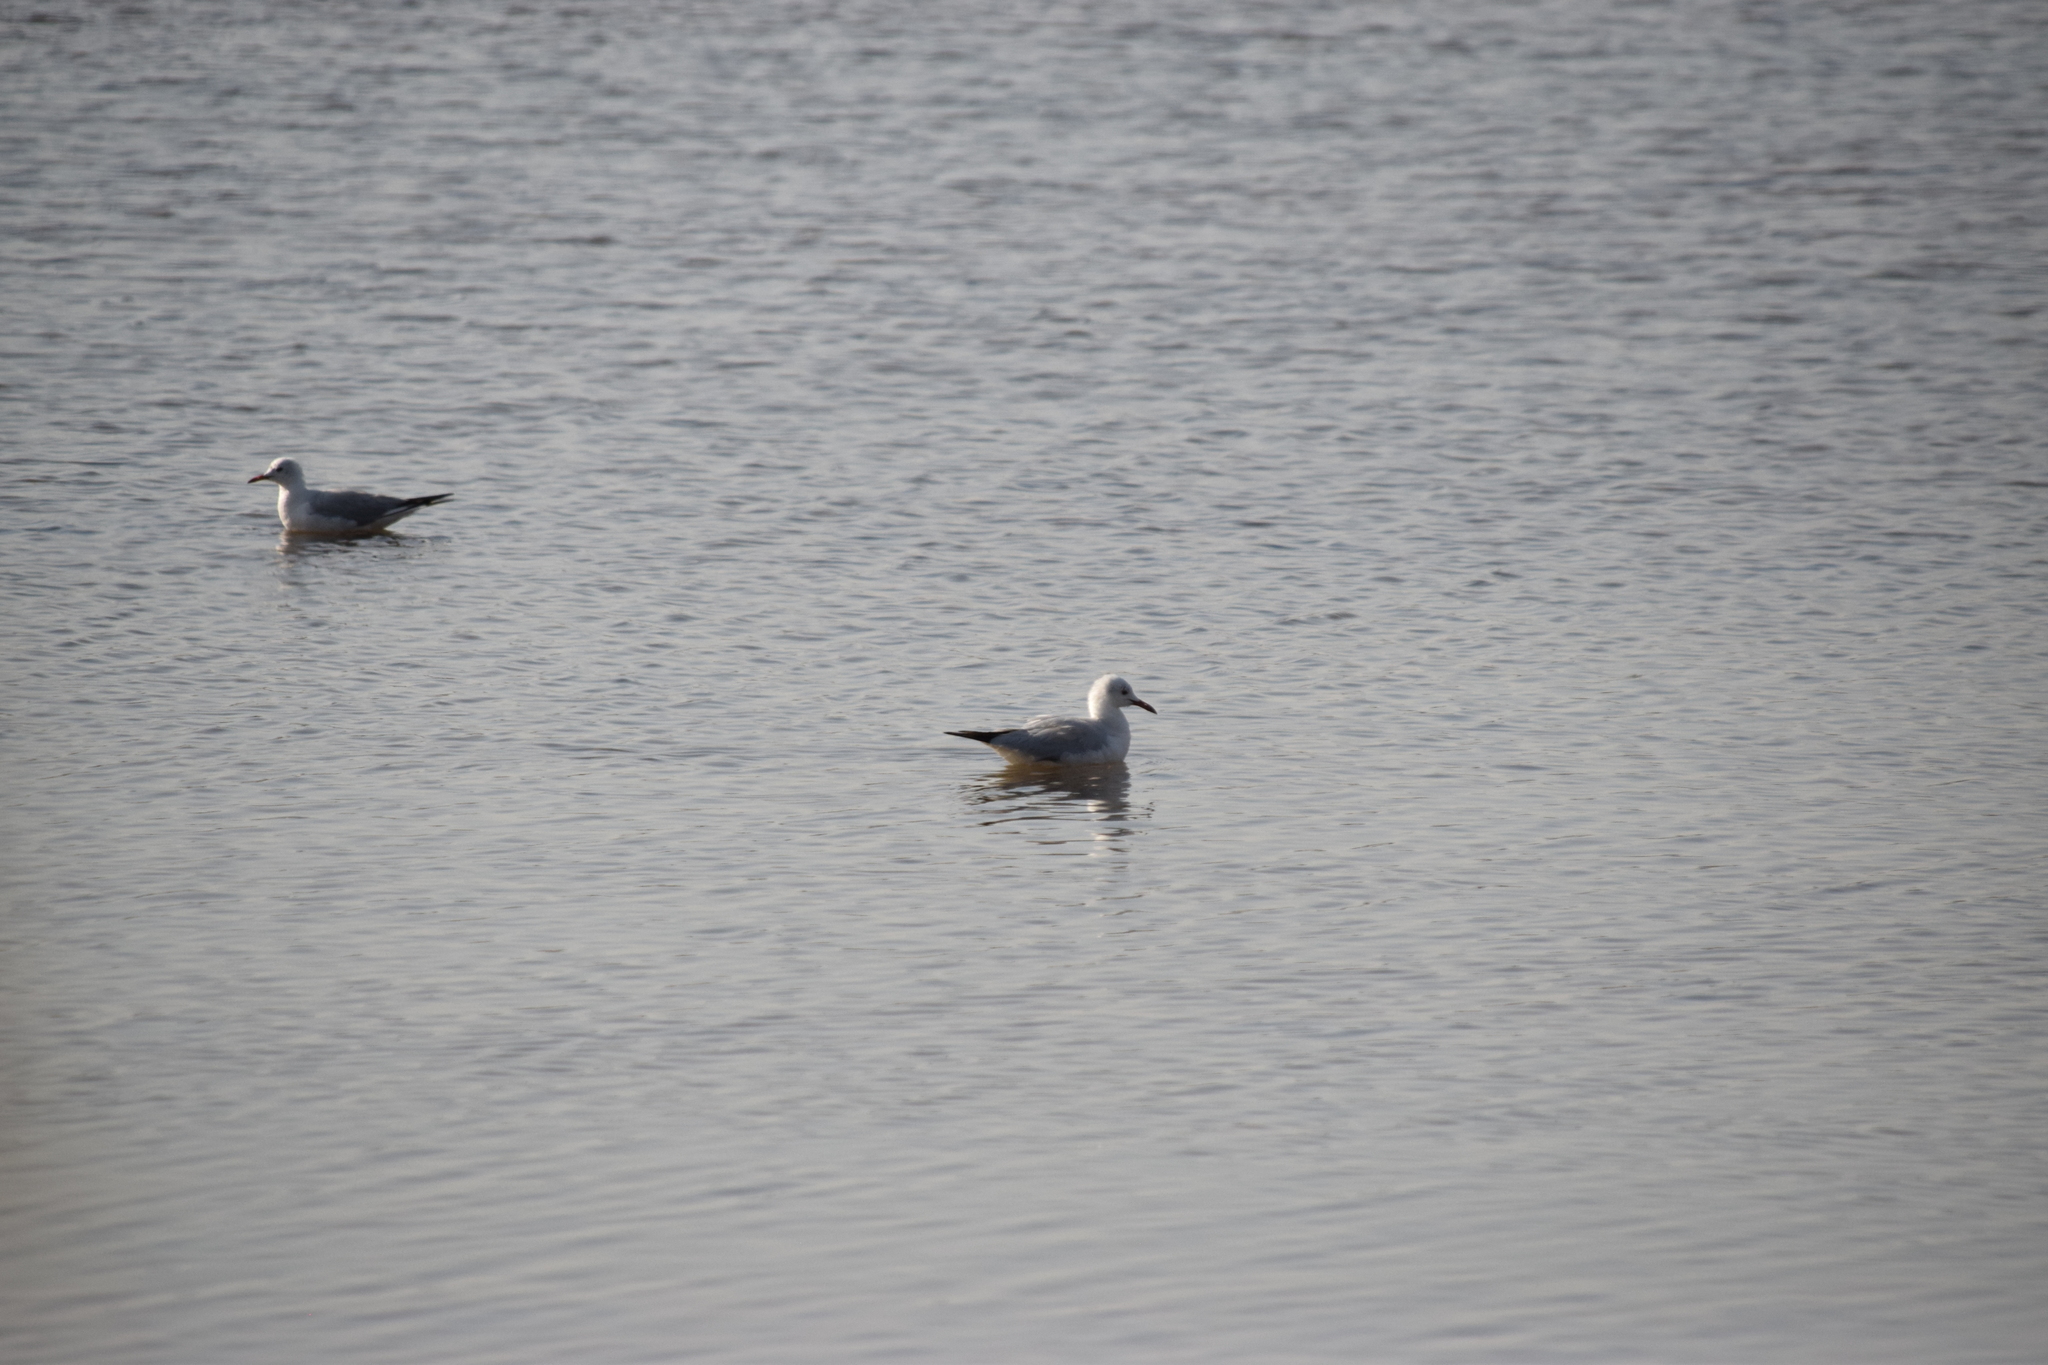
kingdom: Animalia
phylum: Chordata
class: Aves
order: Charadriiformes
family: Laridae
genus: Chroicocephalus
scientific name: Chroicocephalus genei
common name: Slender-billed gull
